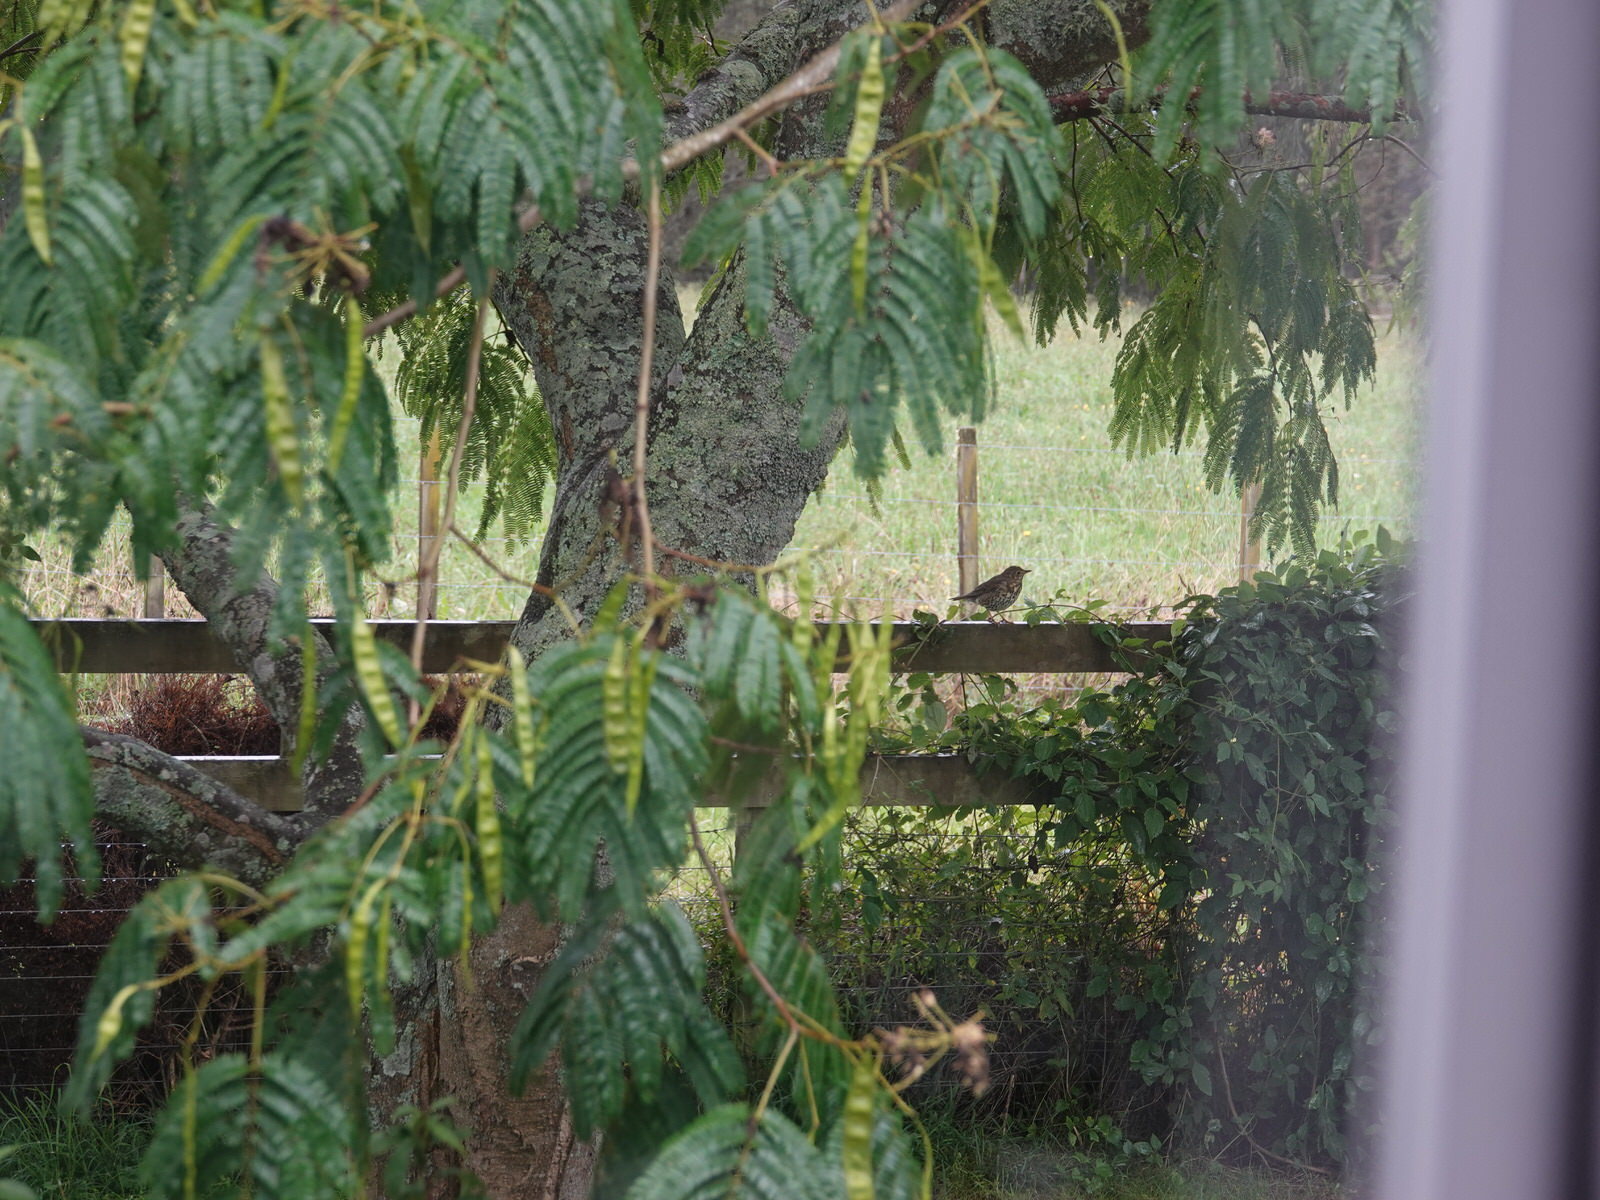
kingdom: Animalia
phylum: Chordata
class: Aves
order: Passeriformes
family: Turdidae
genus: Turdus
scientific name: Turdus philomelos
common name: Song thrush
